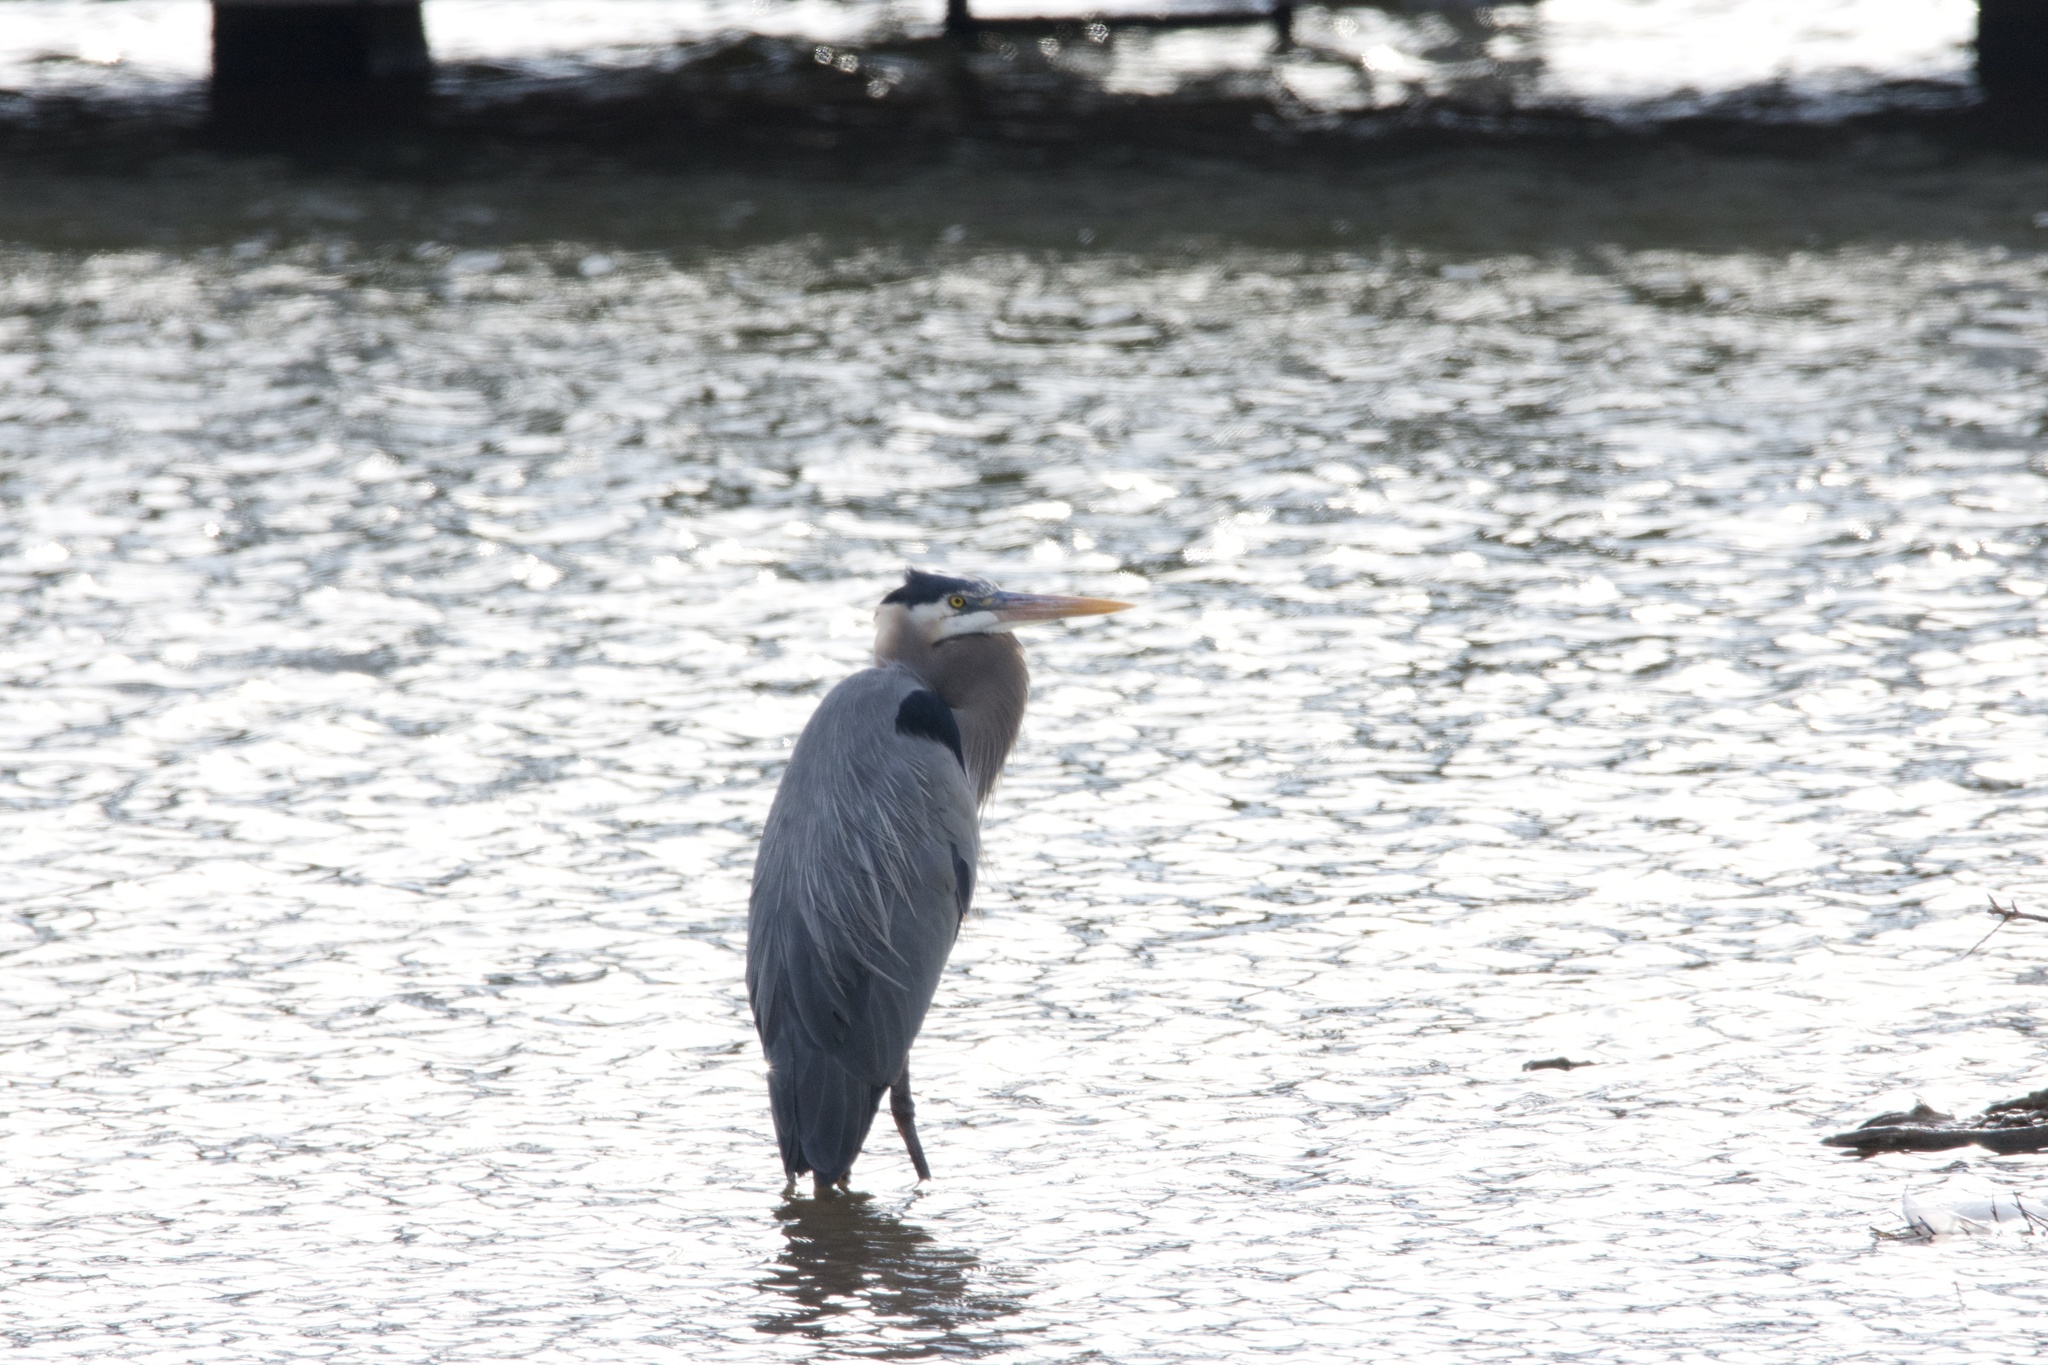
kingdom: Animalia
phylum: Chordata
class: Aves
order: Pelecaniformes
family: Ardeidae
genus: Ardea
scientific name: Ardea herodias
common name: Great blue heron
